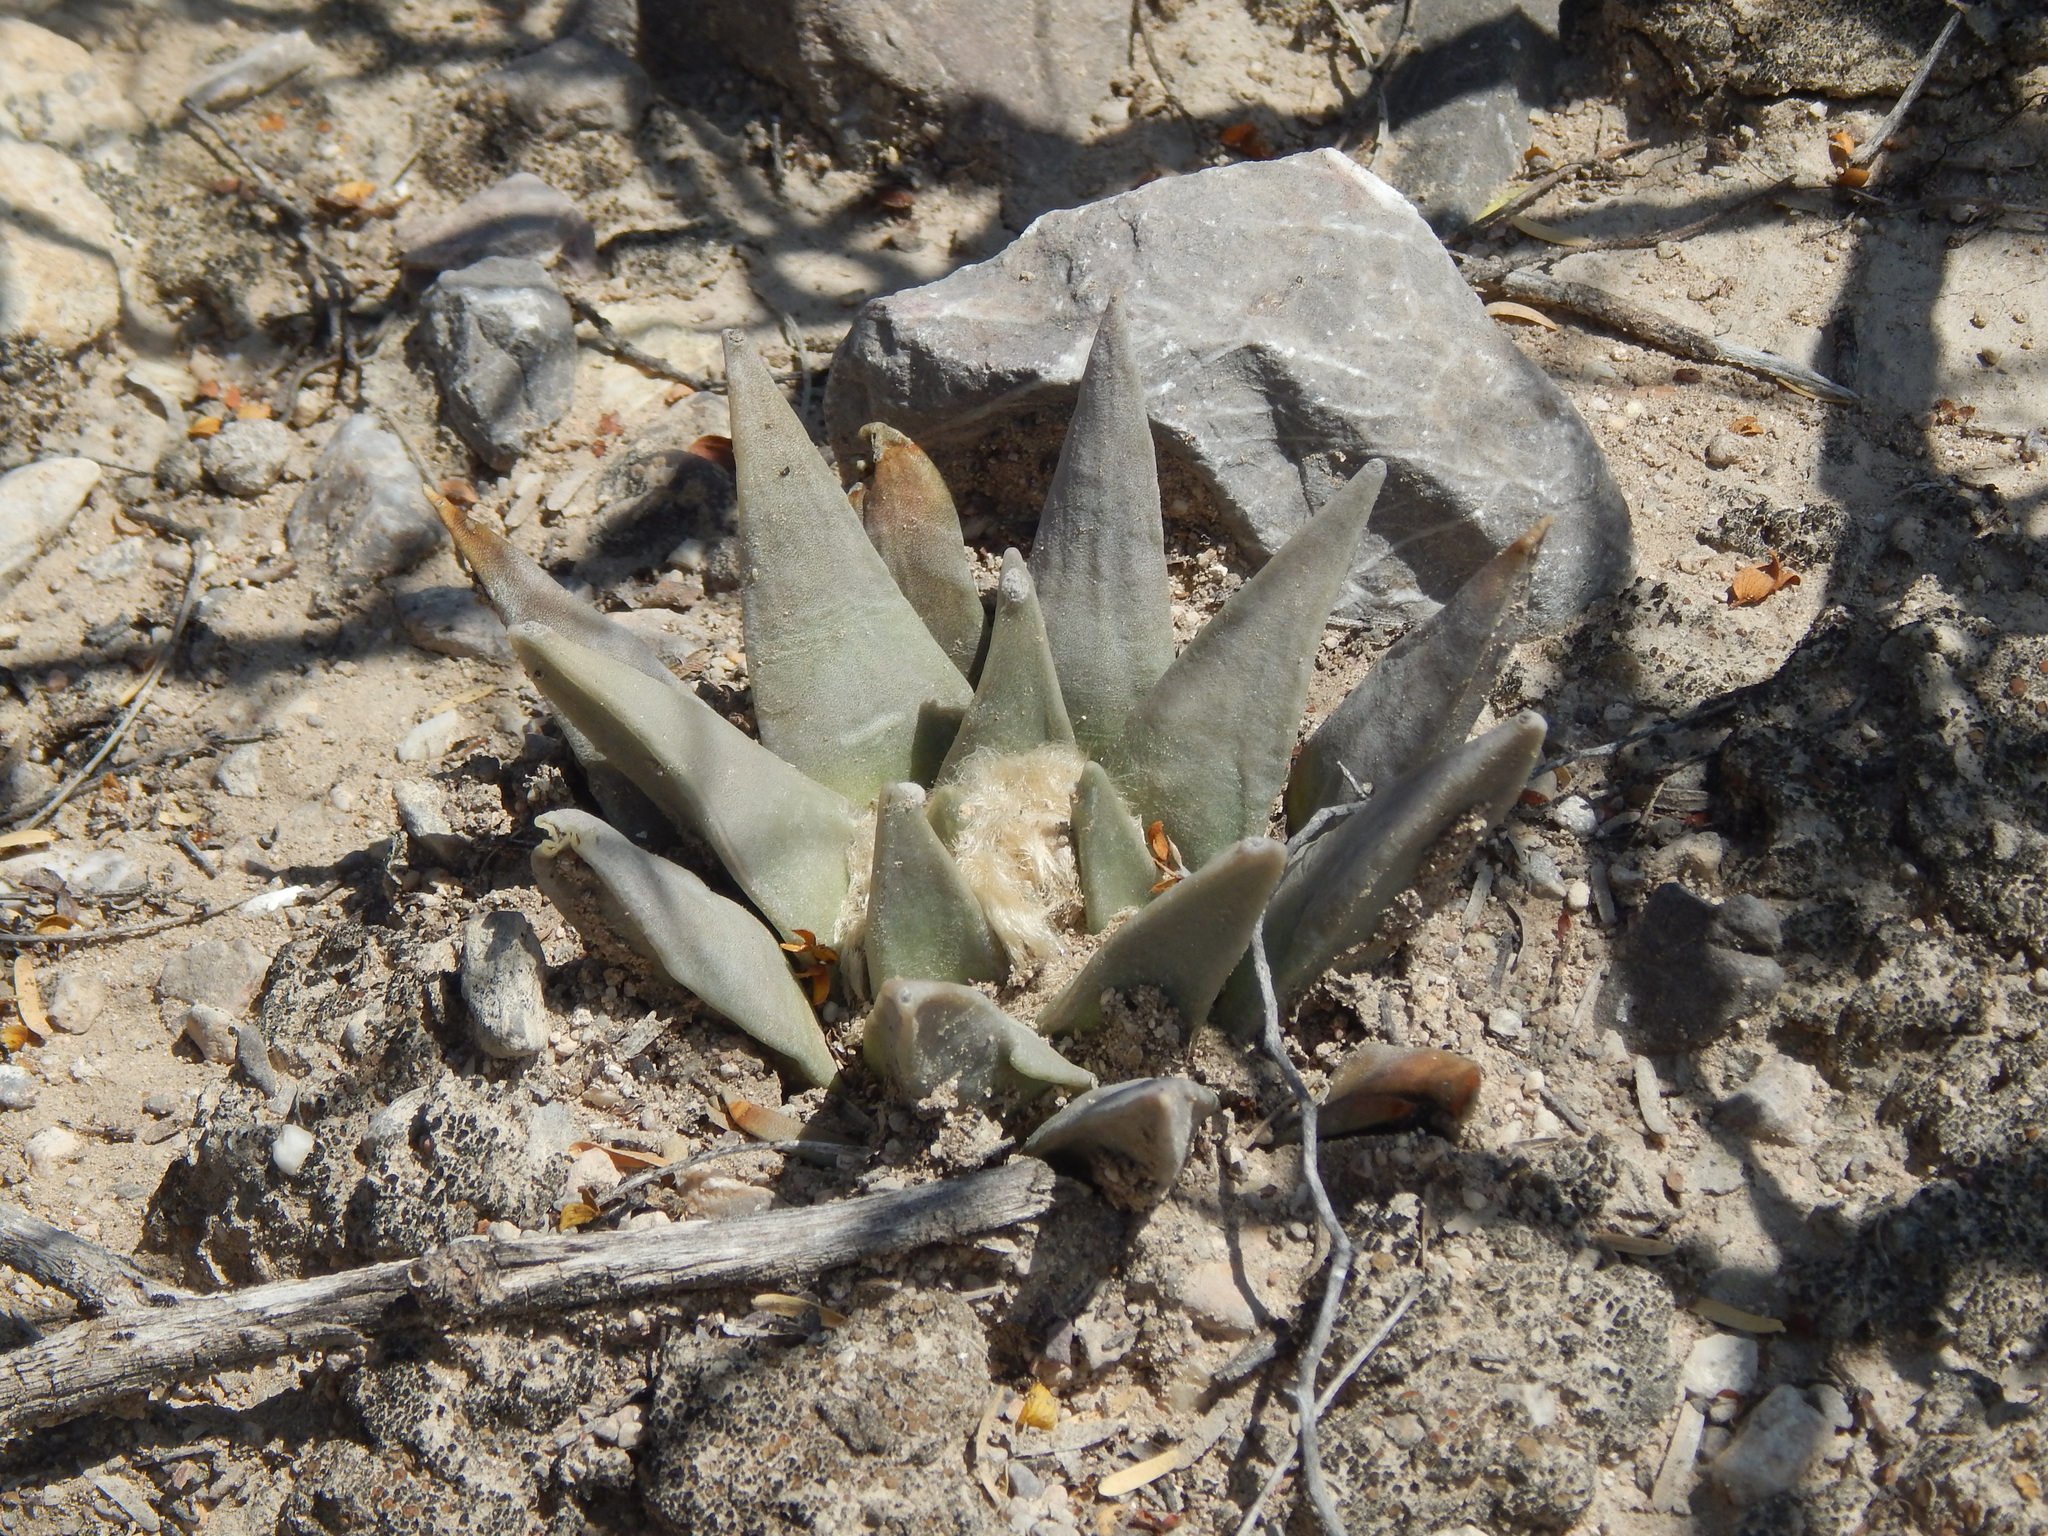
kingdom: Plantae
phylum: Tracheophyta
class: Magnoliopsida
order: Caryophyllales
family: Cactaceae
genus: Ariocarpus
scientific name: Ariocarpus retusus
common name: Seven stars
